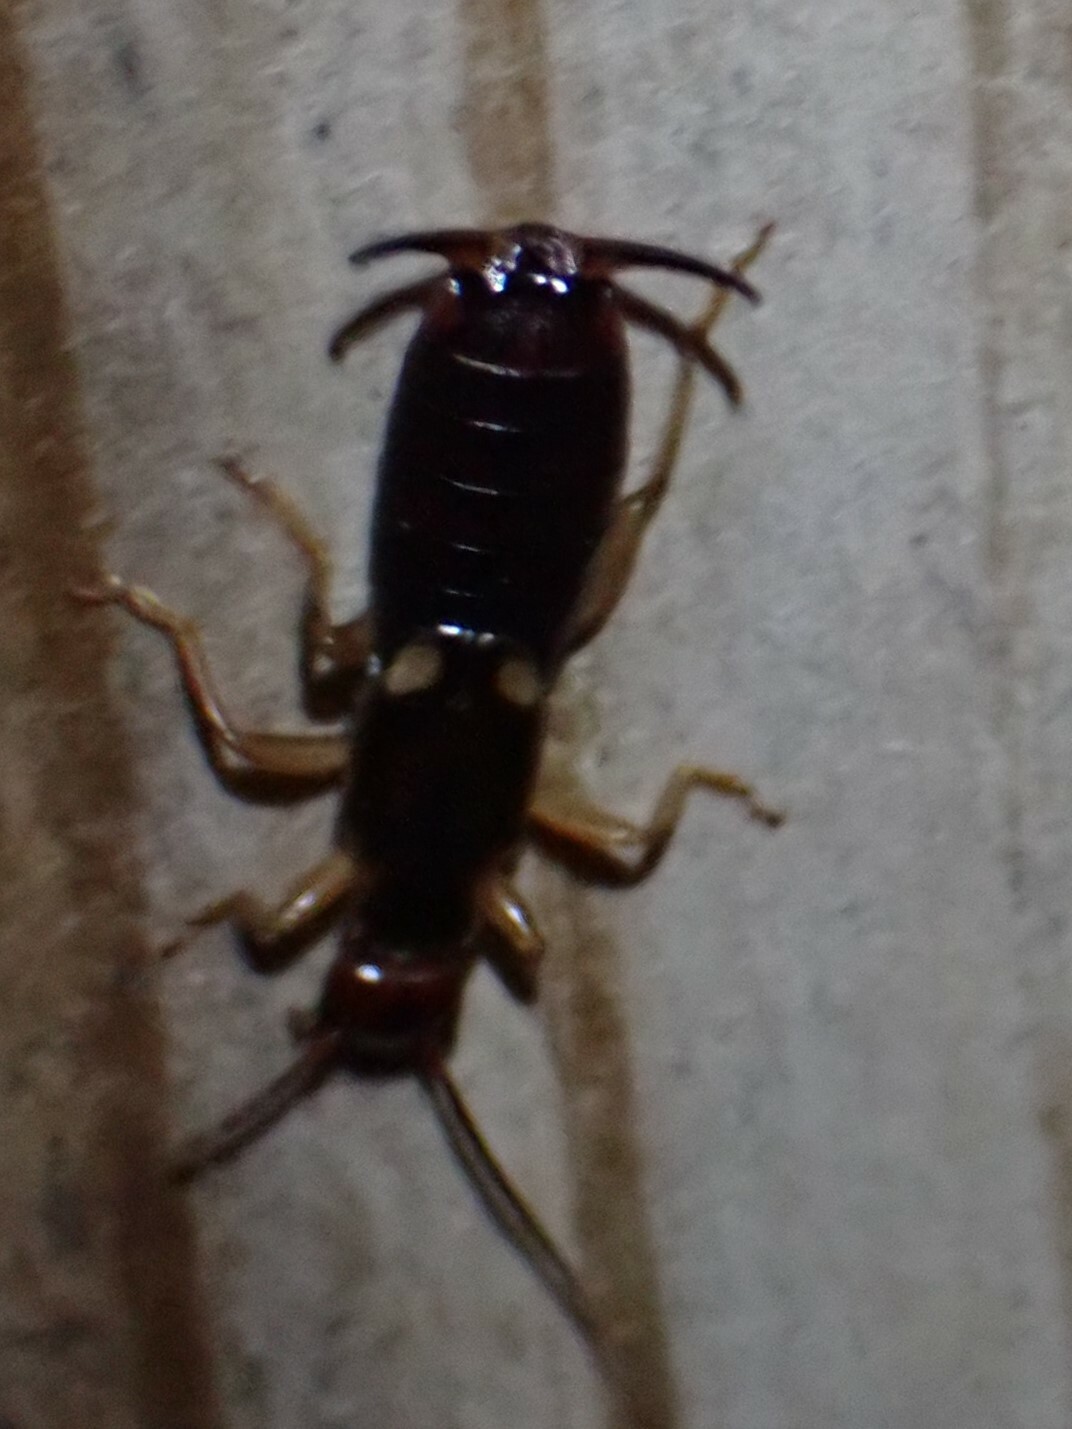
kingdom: Animalia
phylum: Arthropoda
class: Insecta
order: Dermaptera
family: Forficulidae
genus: Forficula
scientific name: Forficula
